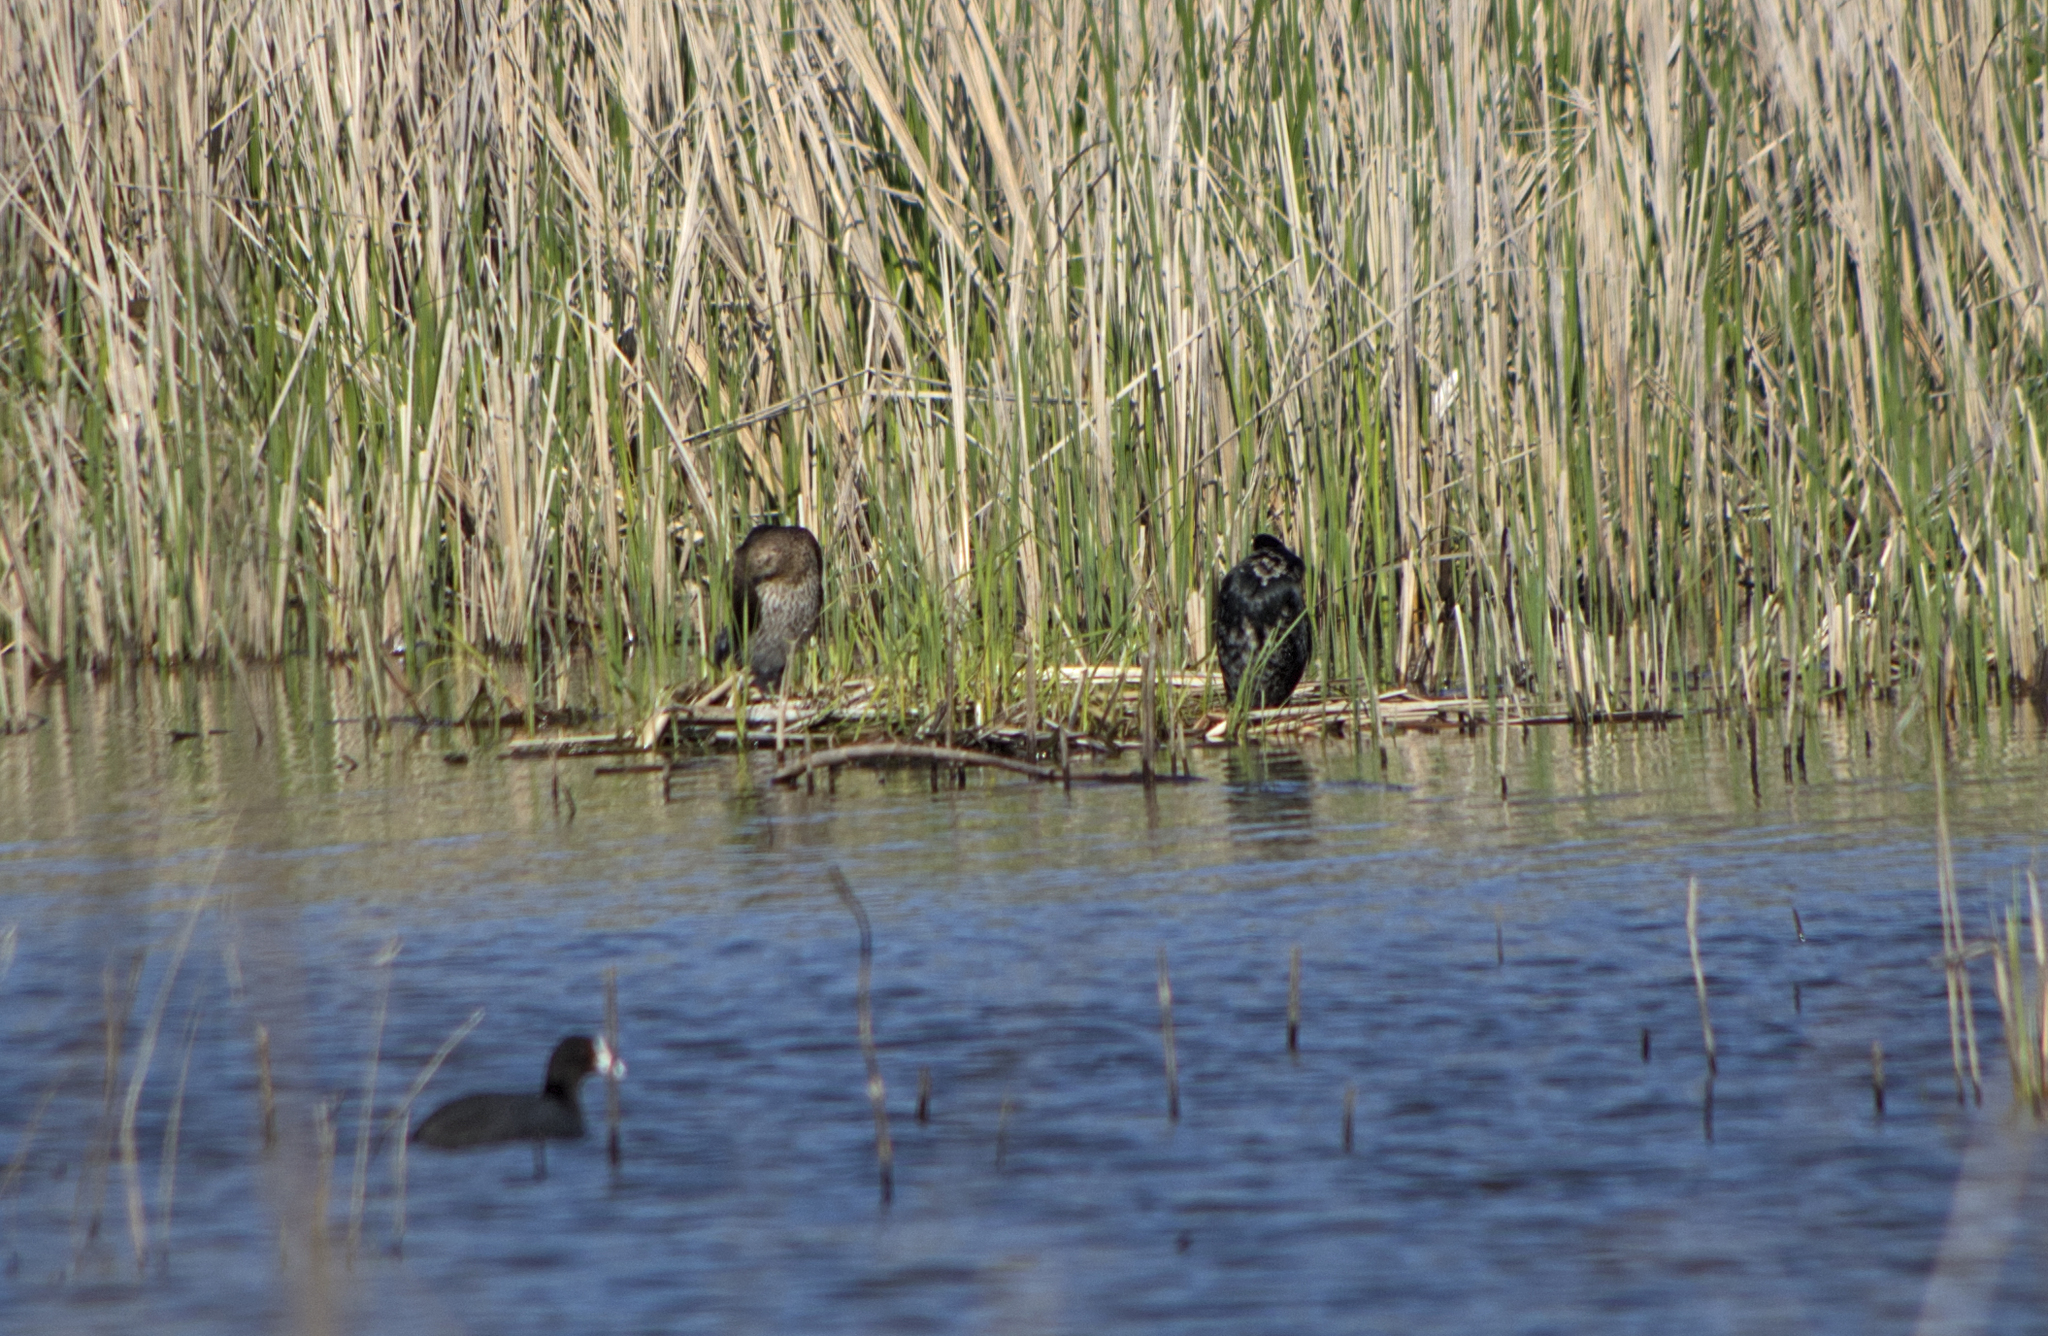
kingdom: Animalia
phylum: Chordata
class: Aves
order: Suliformes
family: Phalacrocoracidae
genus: Microcarbo
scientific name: Microcarbo pygmaeus
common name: Pygmy cormorant
